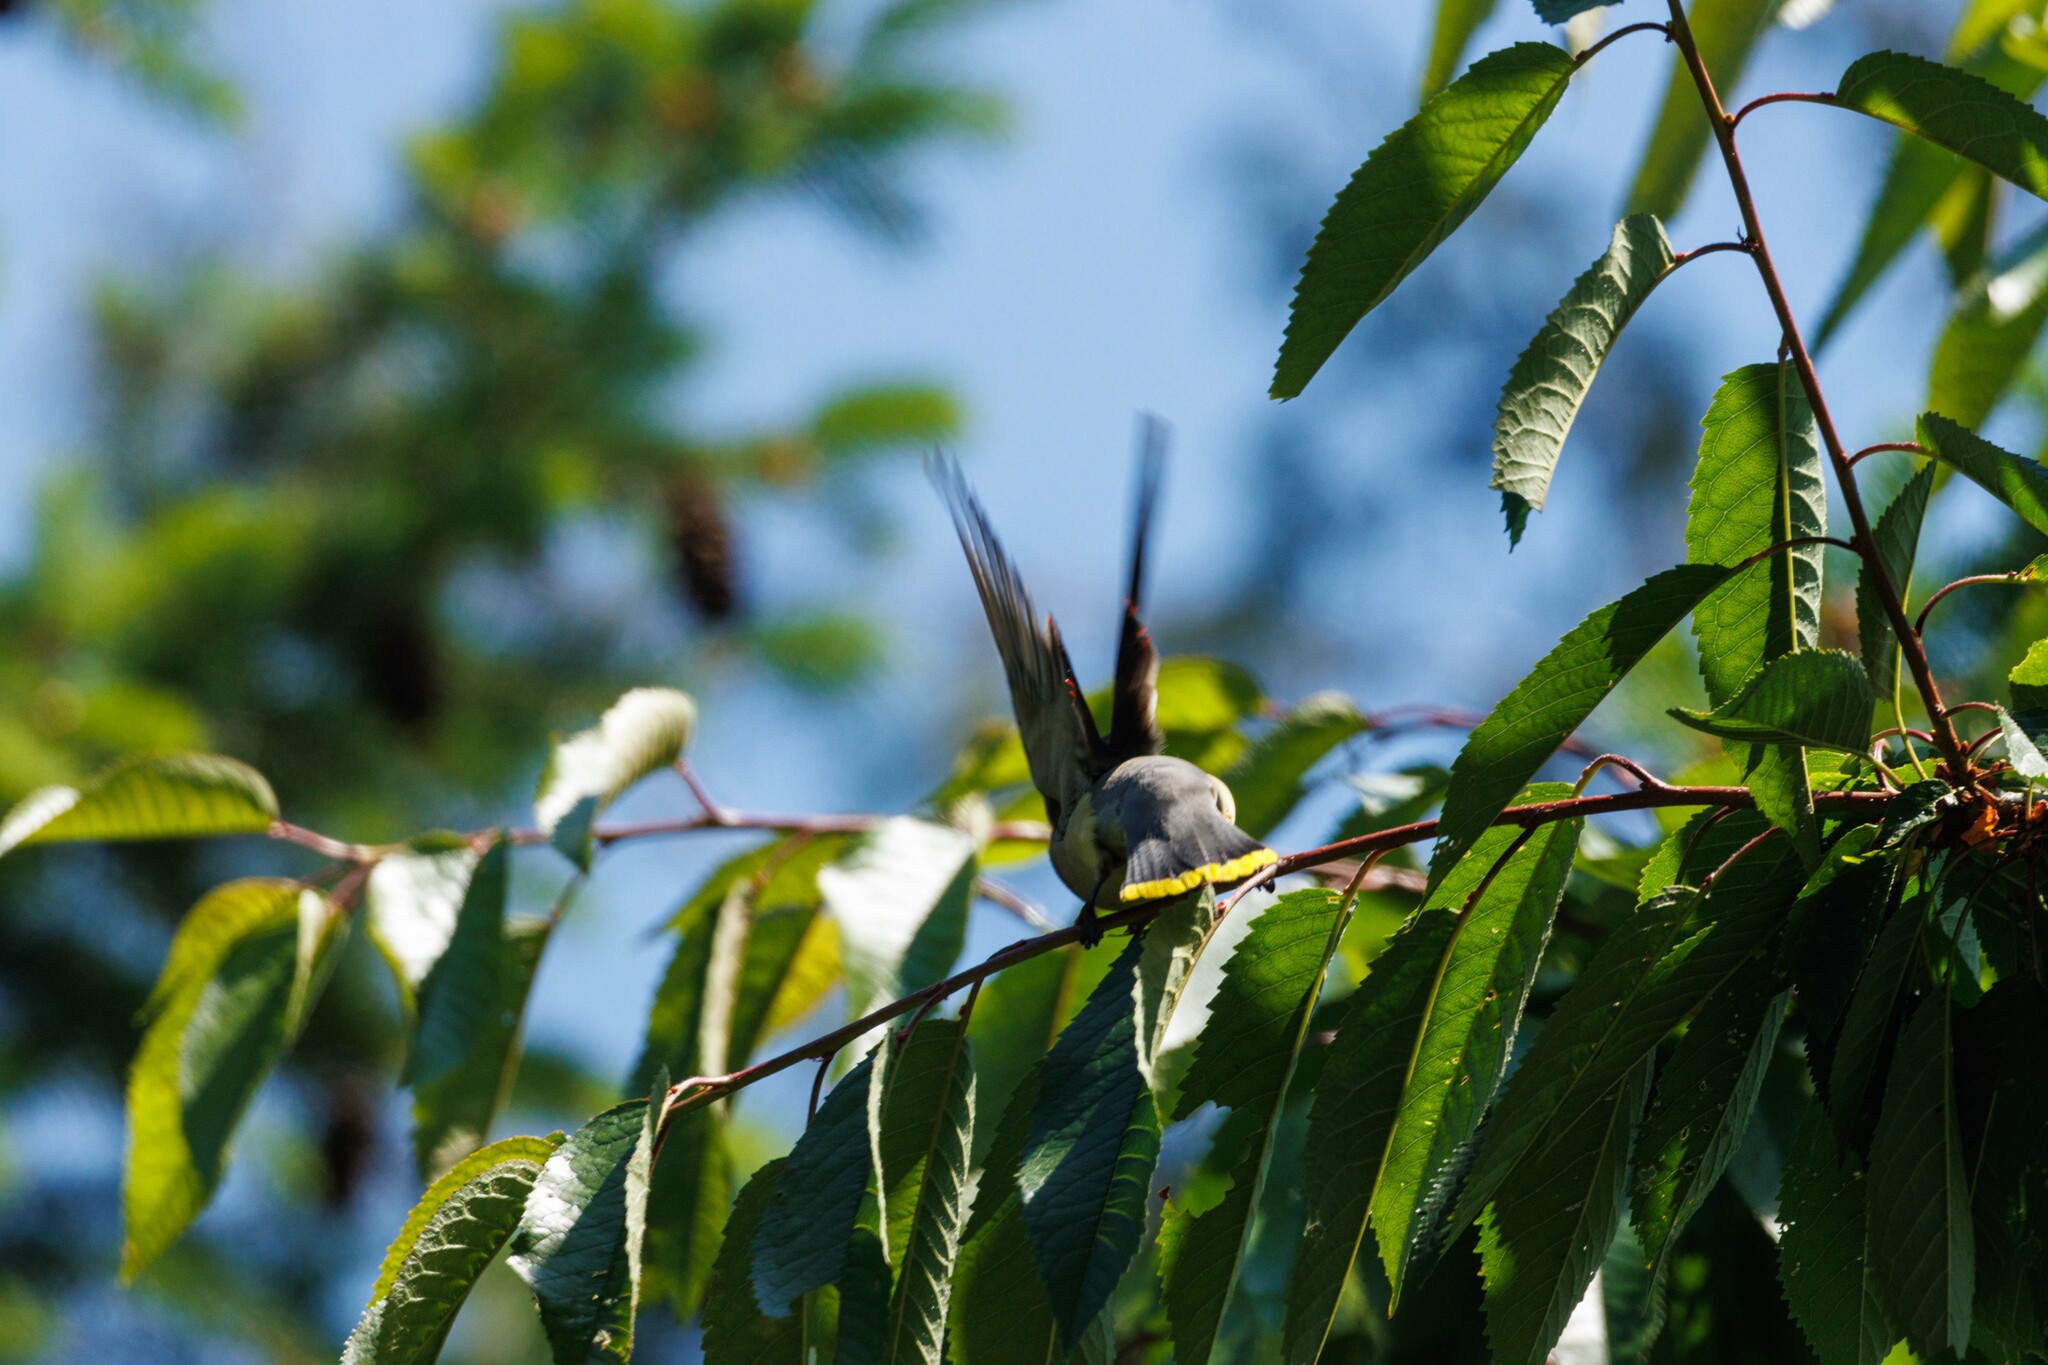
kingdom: Animalia
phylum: Chordata
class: Aves
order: Passeriformes
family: Bombycillidae
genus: Bombycilla
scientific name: Bombycilla cedrorum
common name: Cedar waxwing
